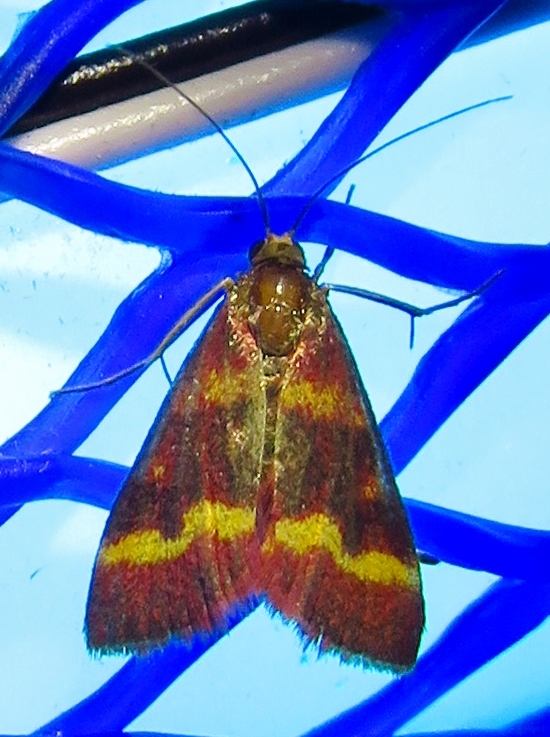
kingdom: Animalia
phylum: Arthropoda
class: Insecta
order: Lepidoptera
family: Crambidae
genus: Pyrausta
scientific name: Pyrausta tyralis
